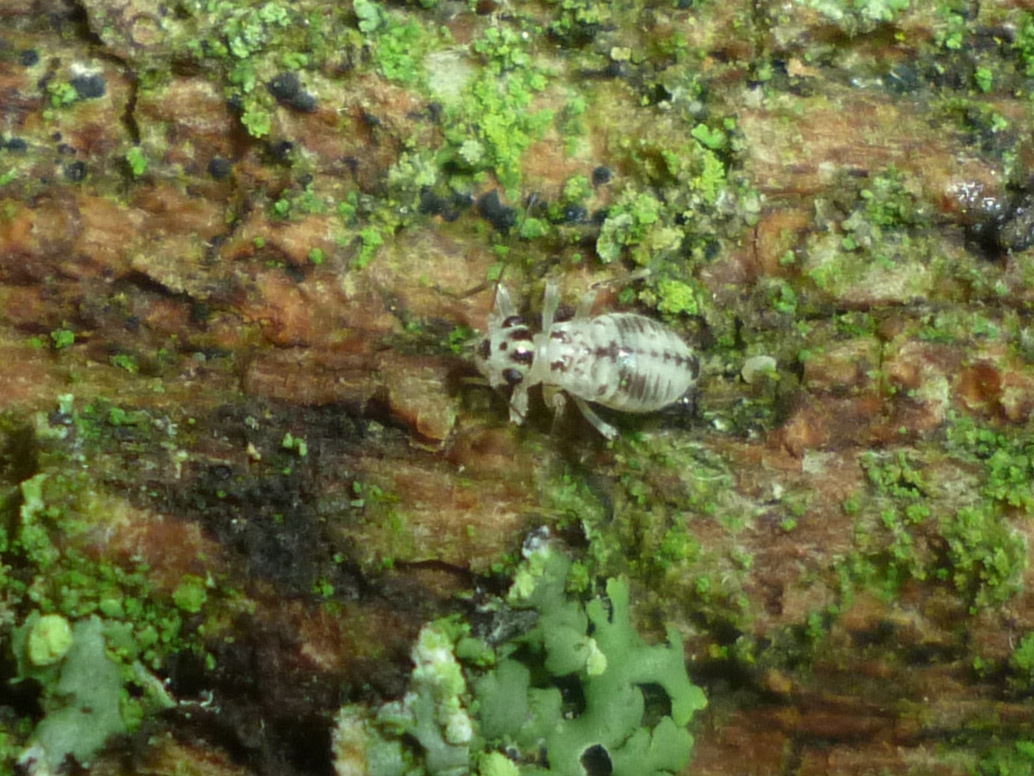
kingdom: Animalia
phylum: Arthropoda
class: Insecta
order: Psocodea
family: Dasydemellidae
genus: Teliapsocus
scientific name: Teliapsocus conterminus
